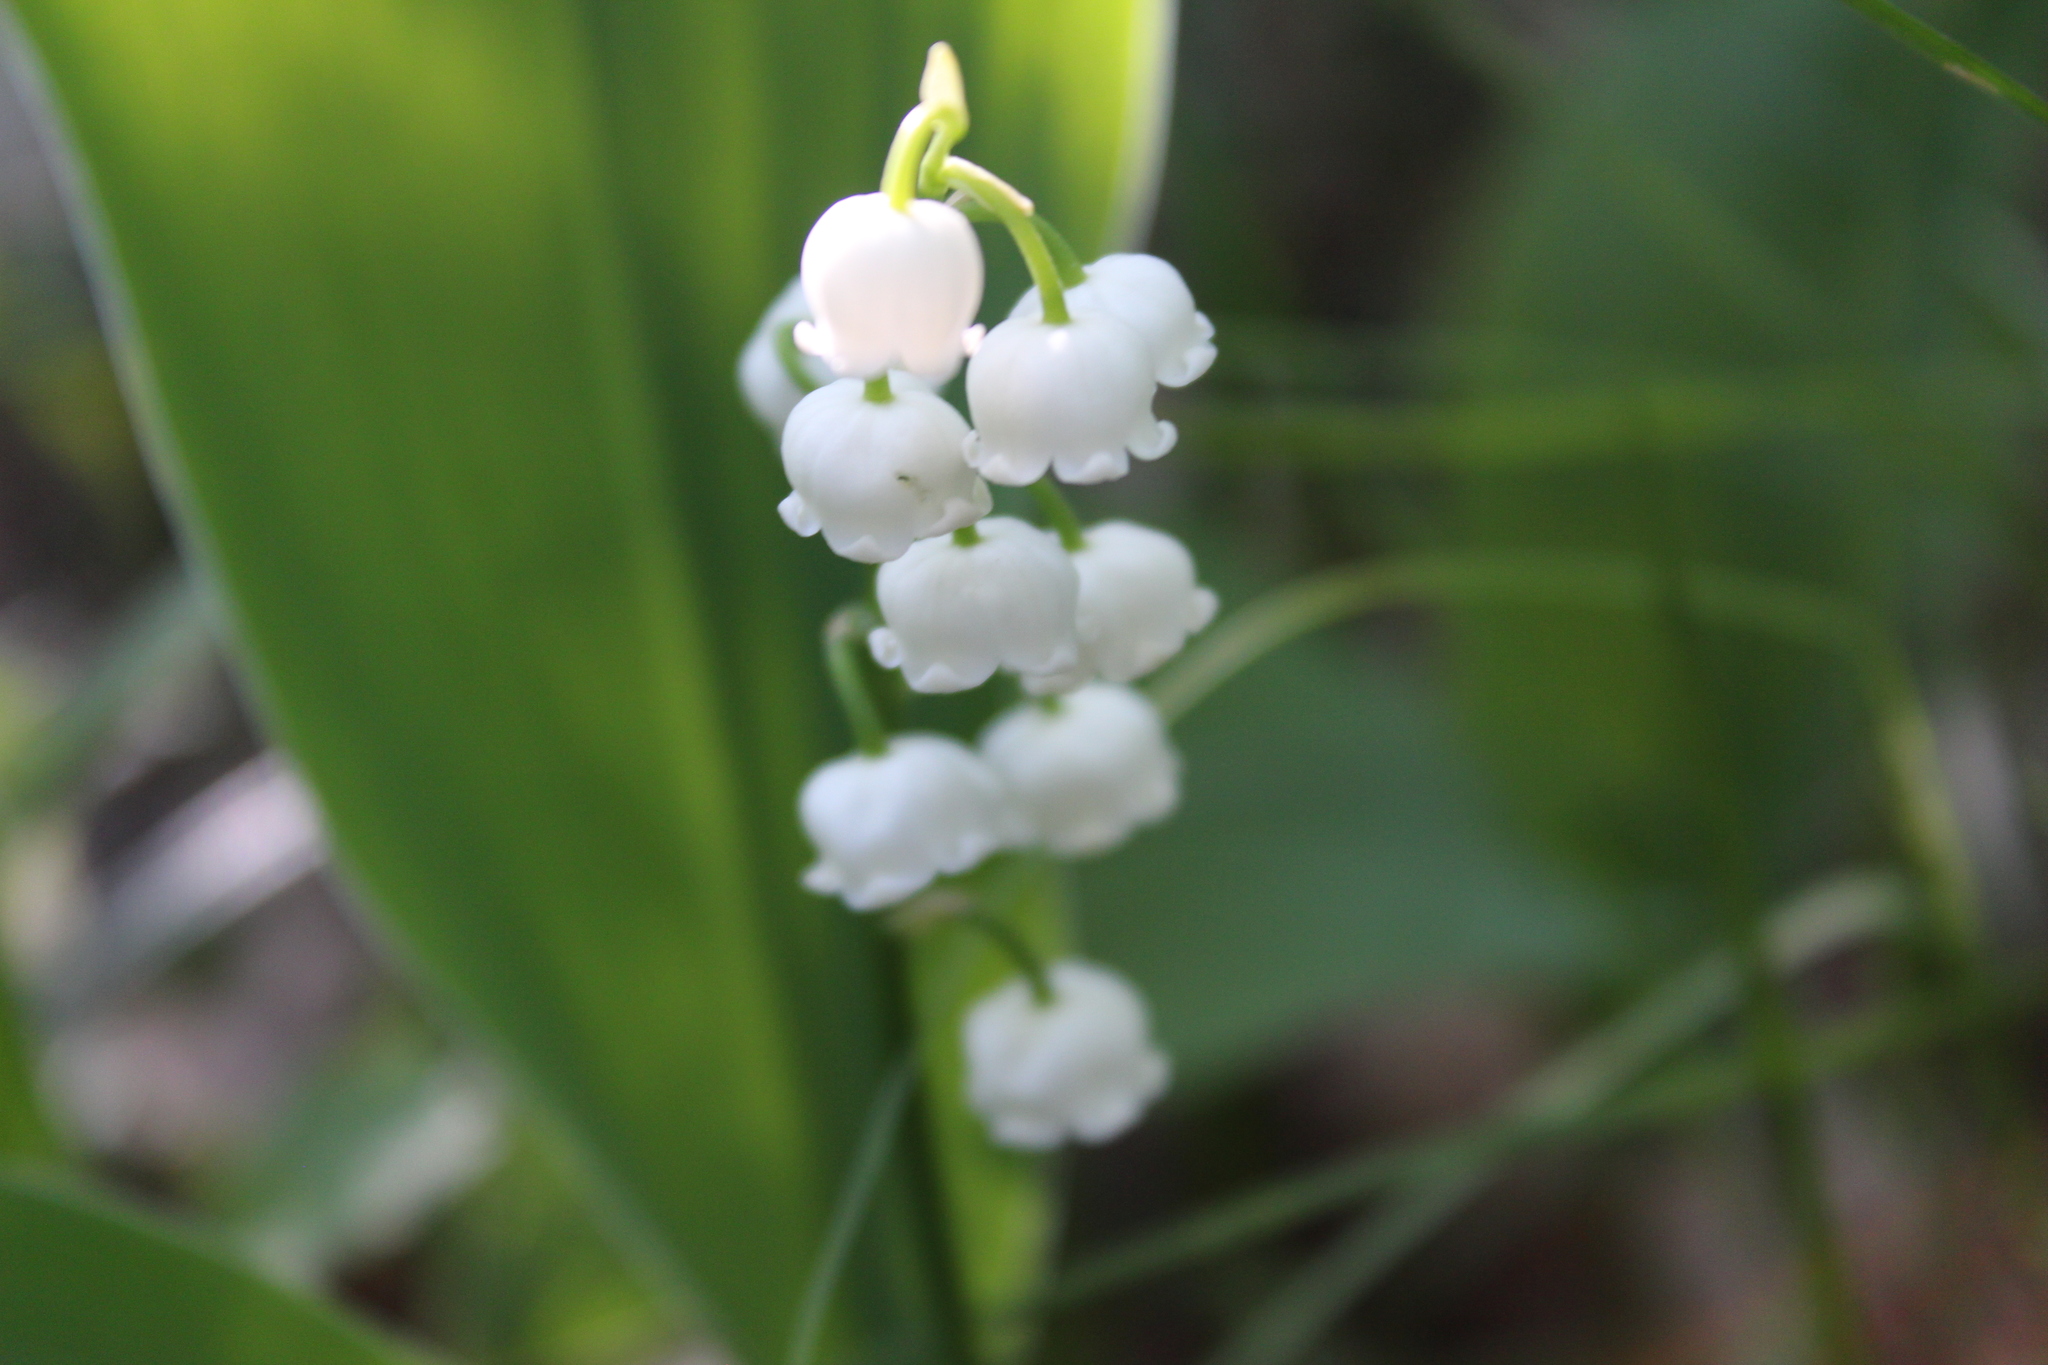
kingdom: Plantae
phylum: Tracheophyta
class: Liliopsida
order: Asparagales
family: Asparagaceae
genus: Convallaria
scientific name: Convallaria majalis
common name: Lily-of-the-valley
